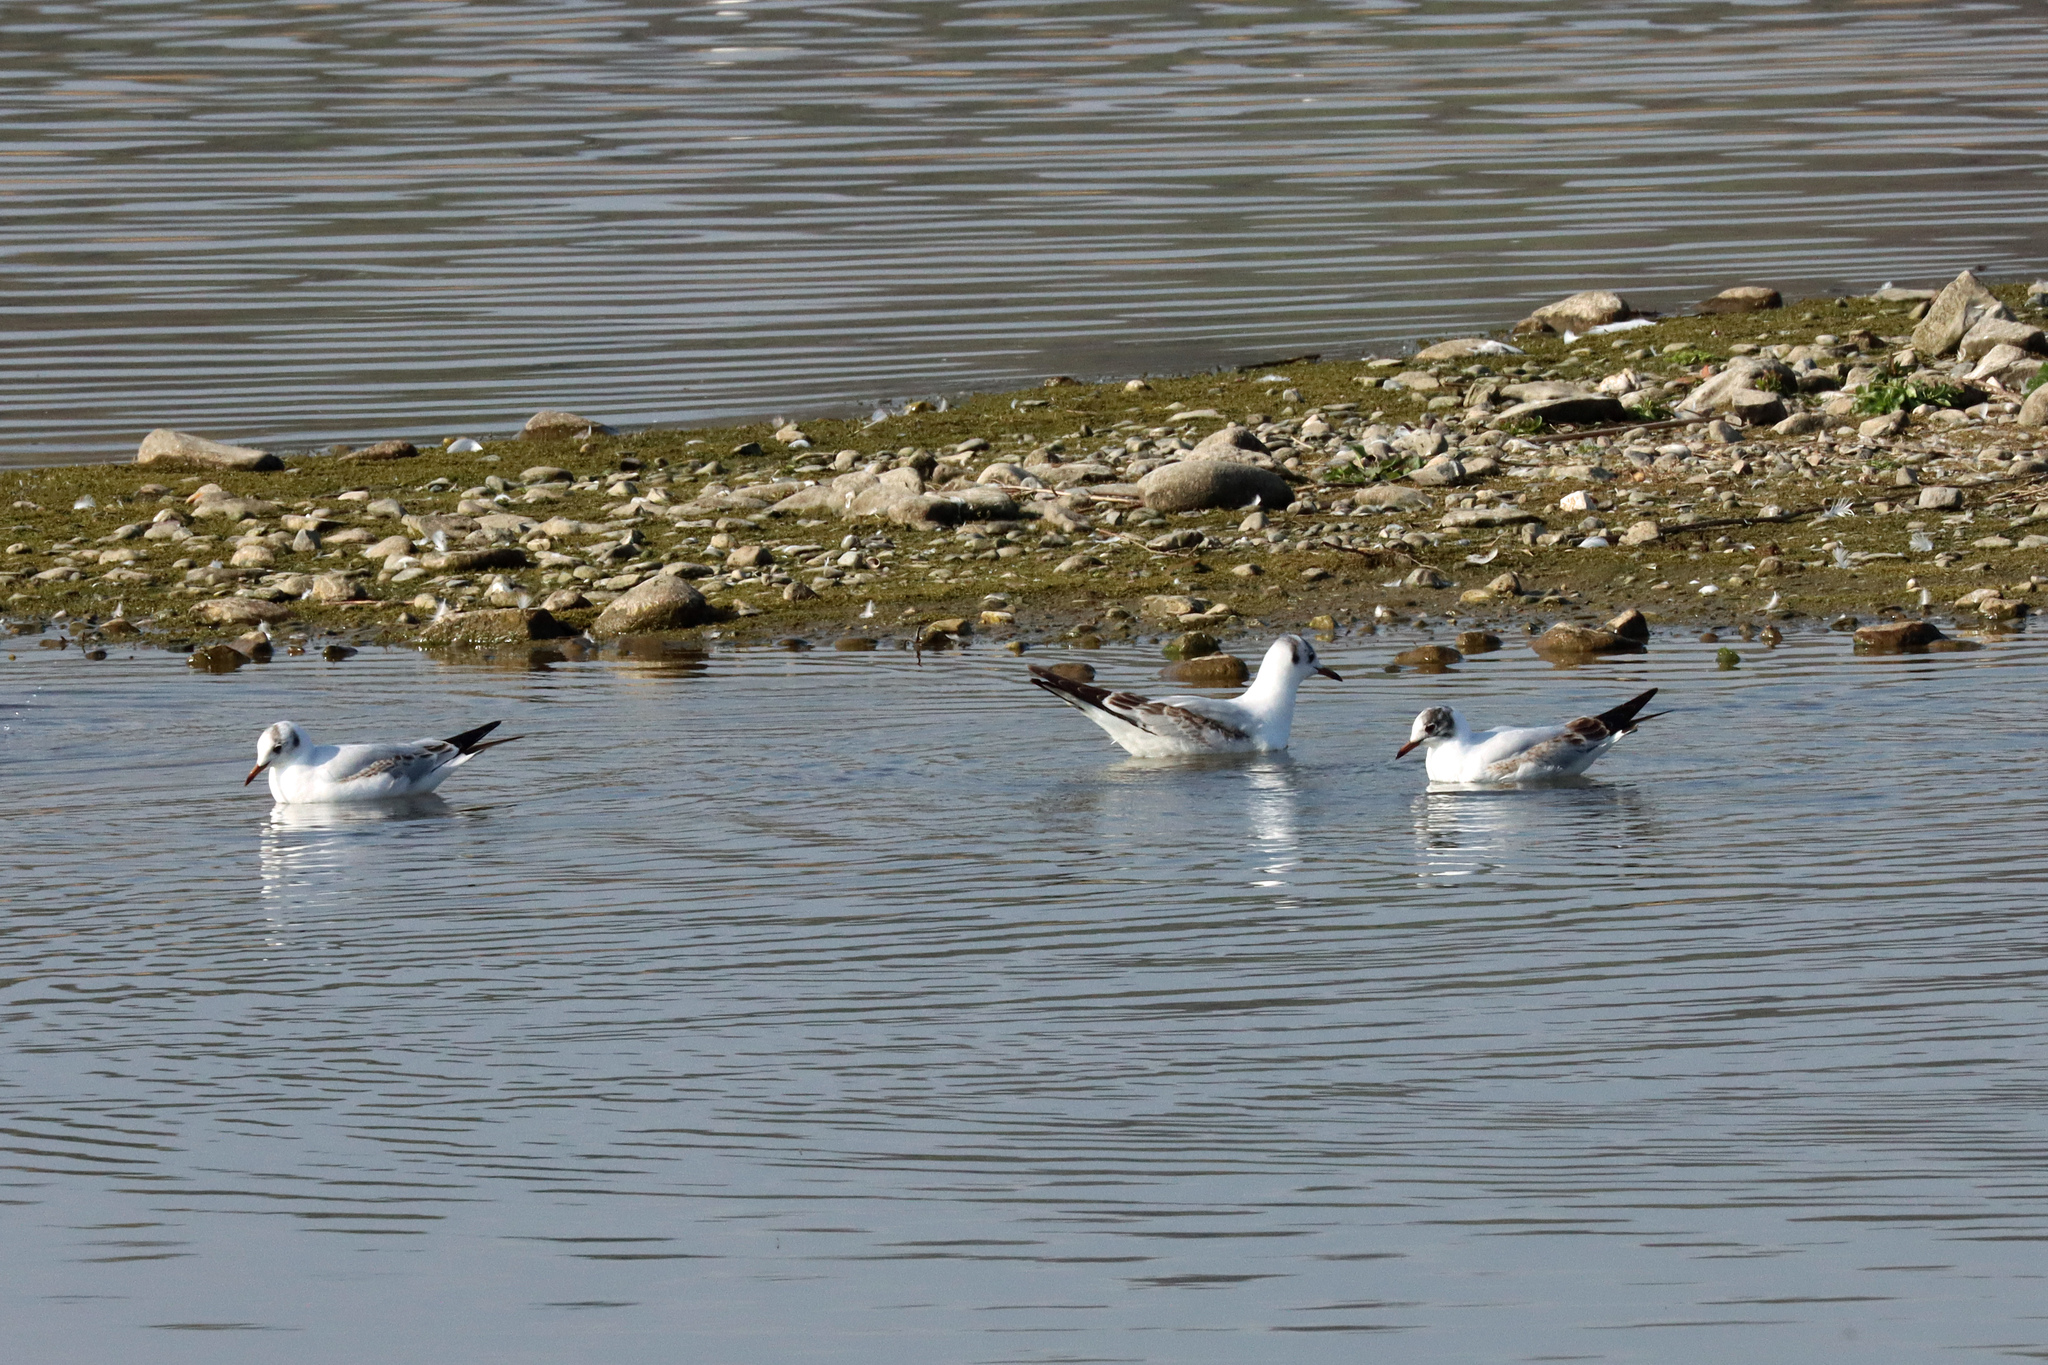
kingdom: Animalia
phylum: Chordata
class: Aves
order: Charadriiformes
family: Laridae
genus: Chroicocephalus
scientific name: Chroicocephalus ridibundus
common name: Black-headed gull
